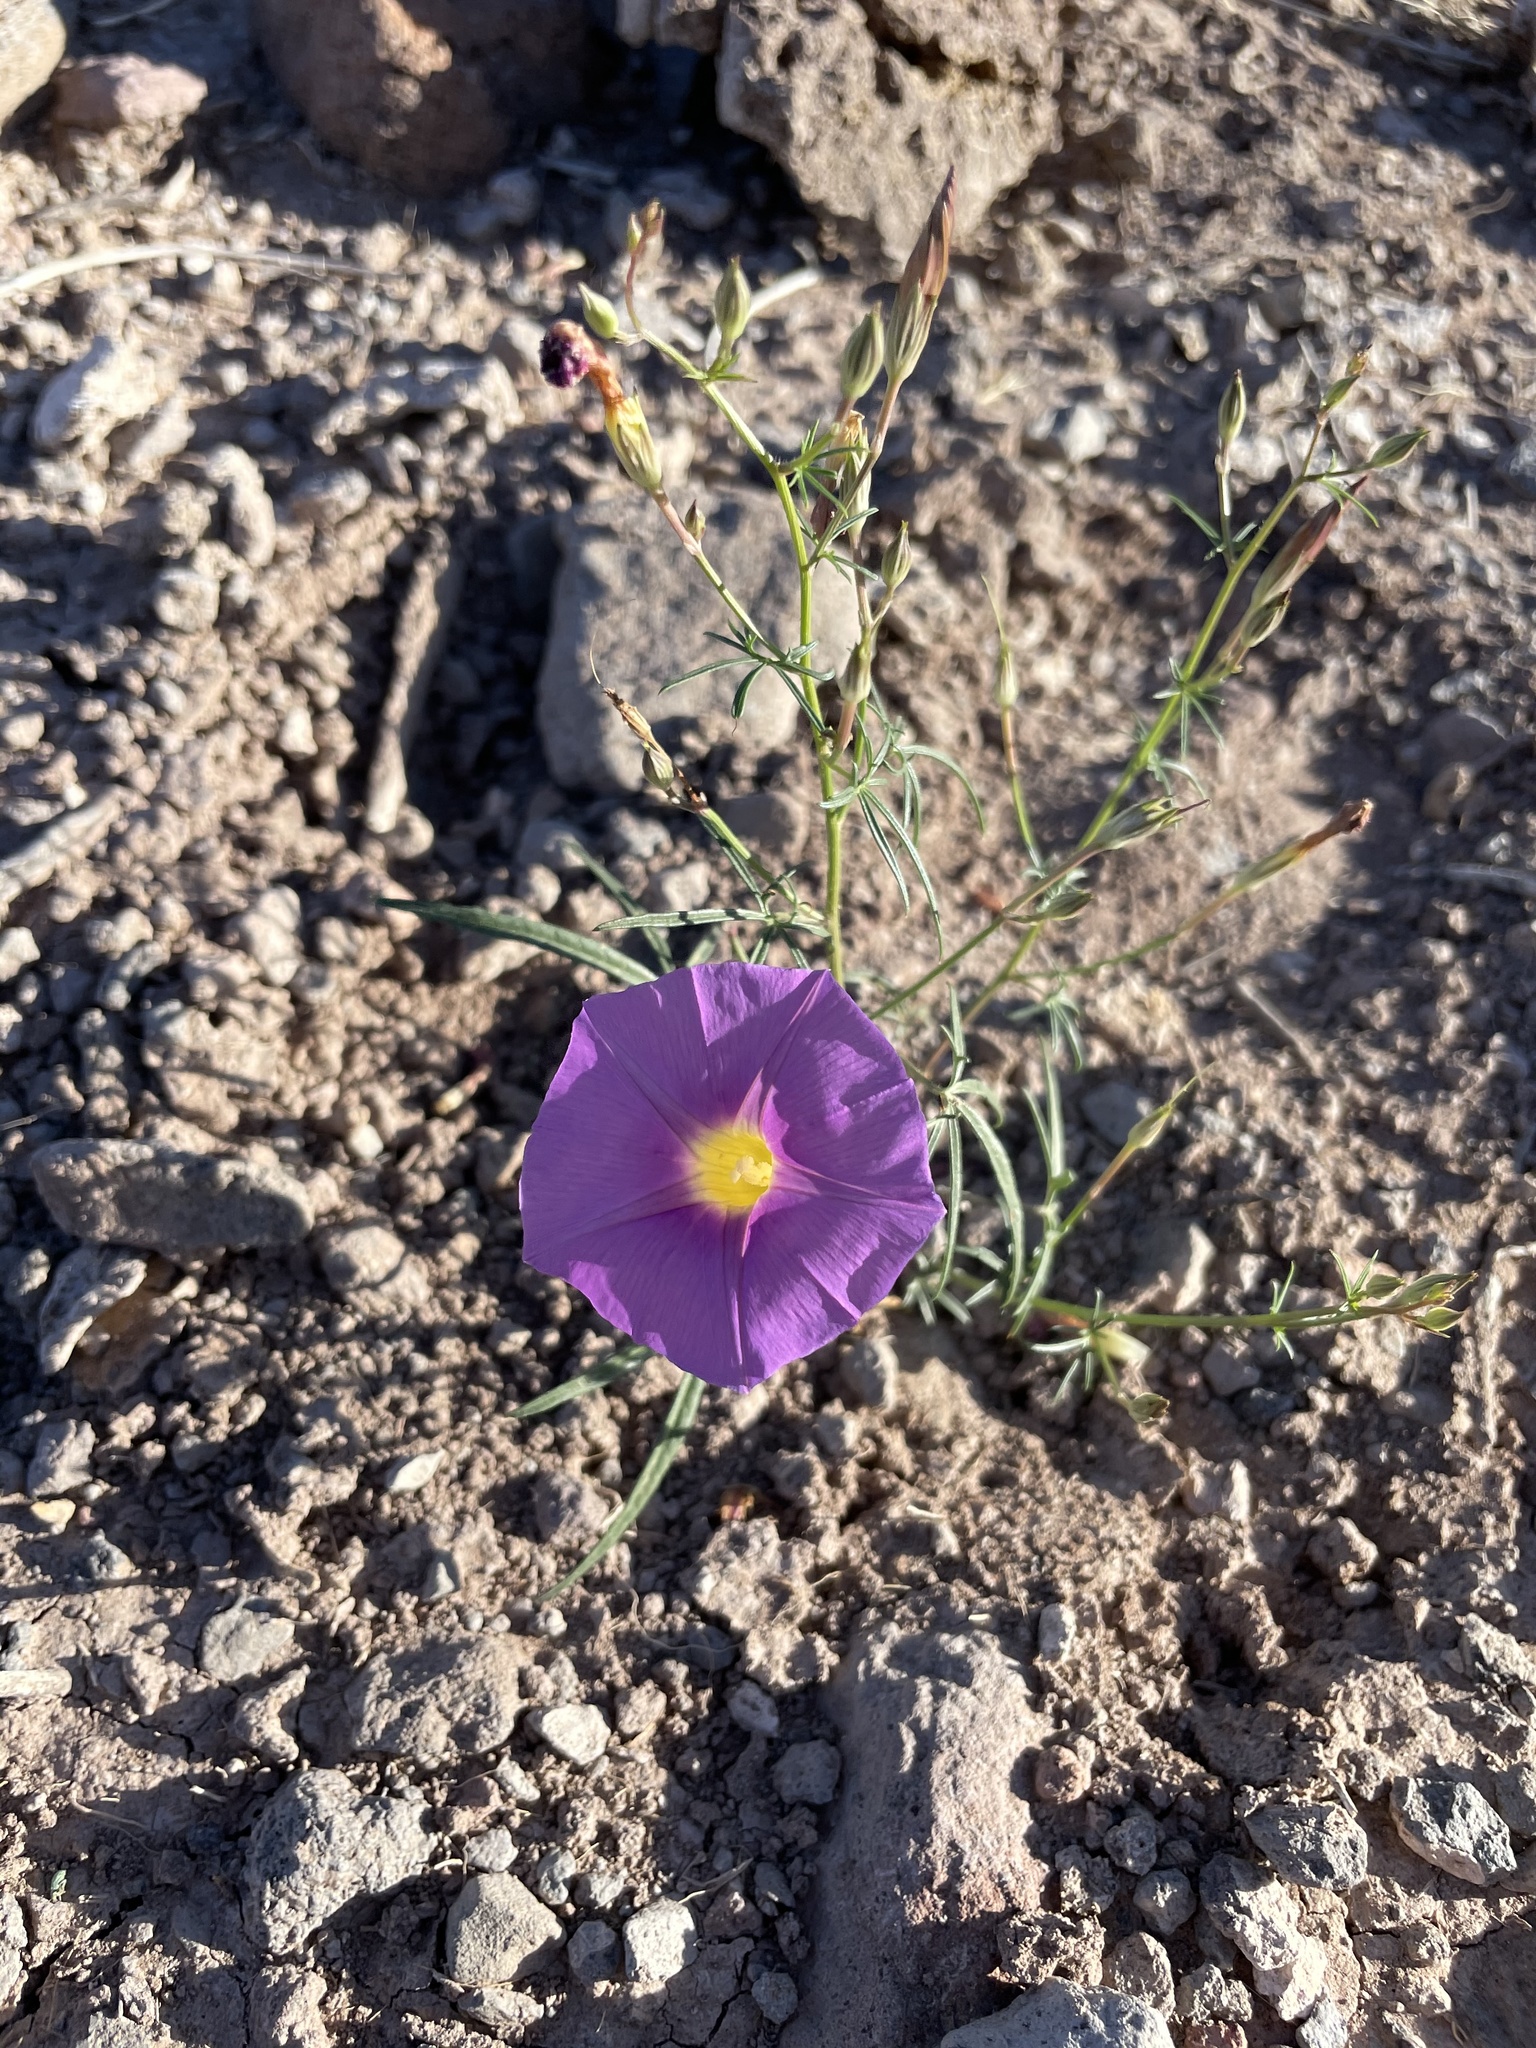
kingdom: Plantae
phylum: Tracheophyta
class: Magnoliopsida
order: Solanales
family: Convolvulaceae
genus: Ipomoea
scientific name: Ipomoea ternifolia
